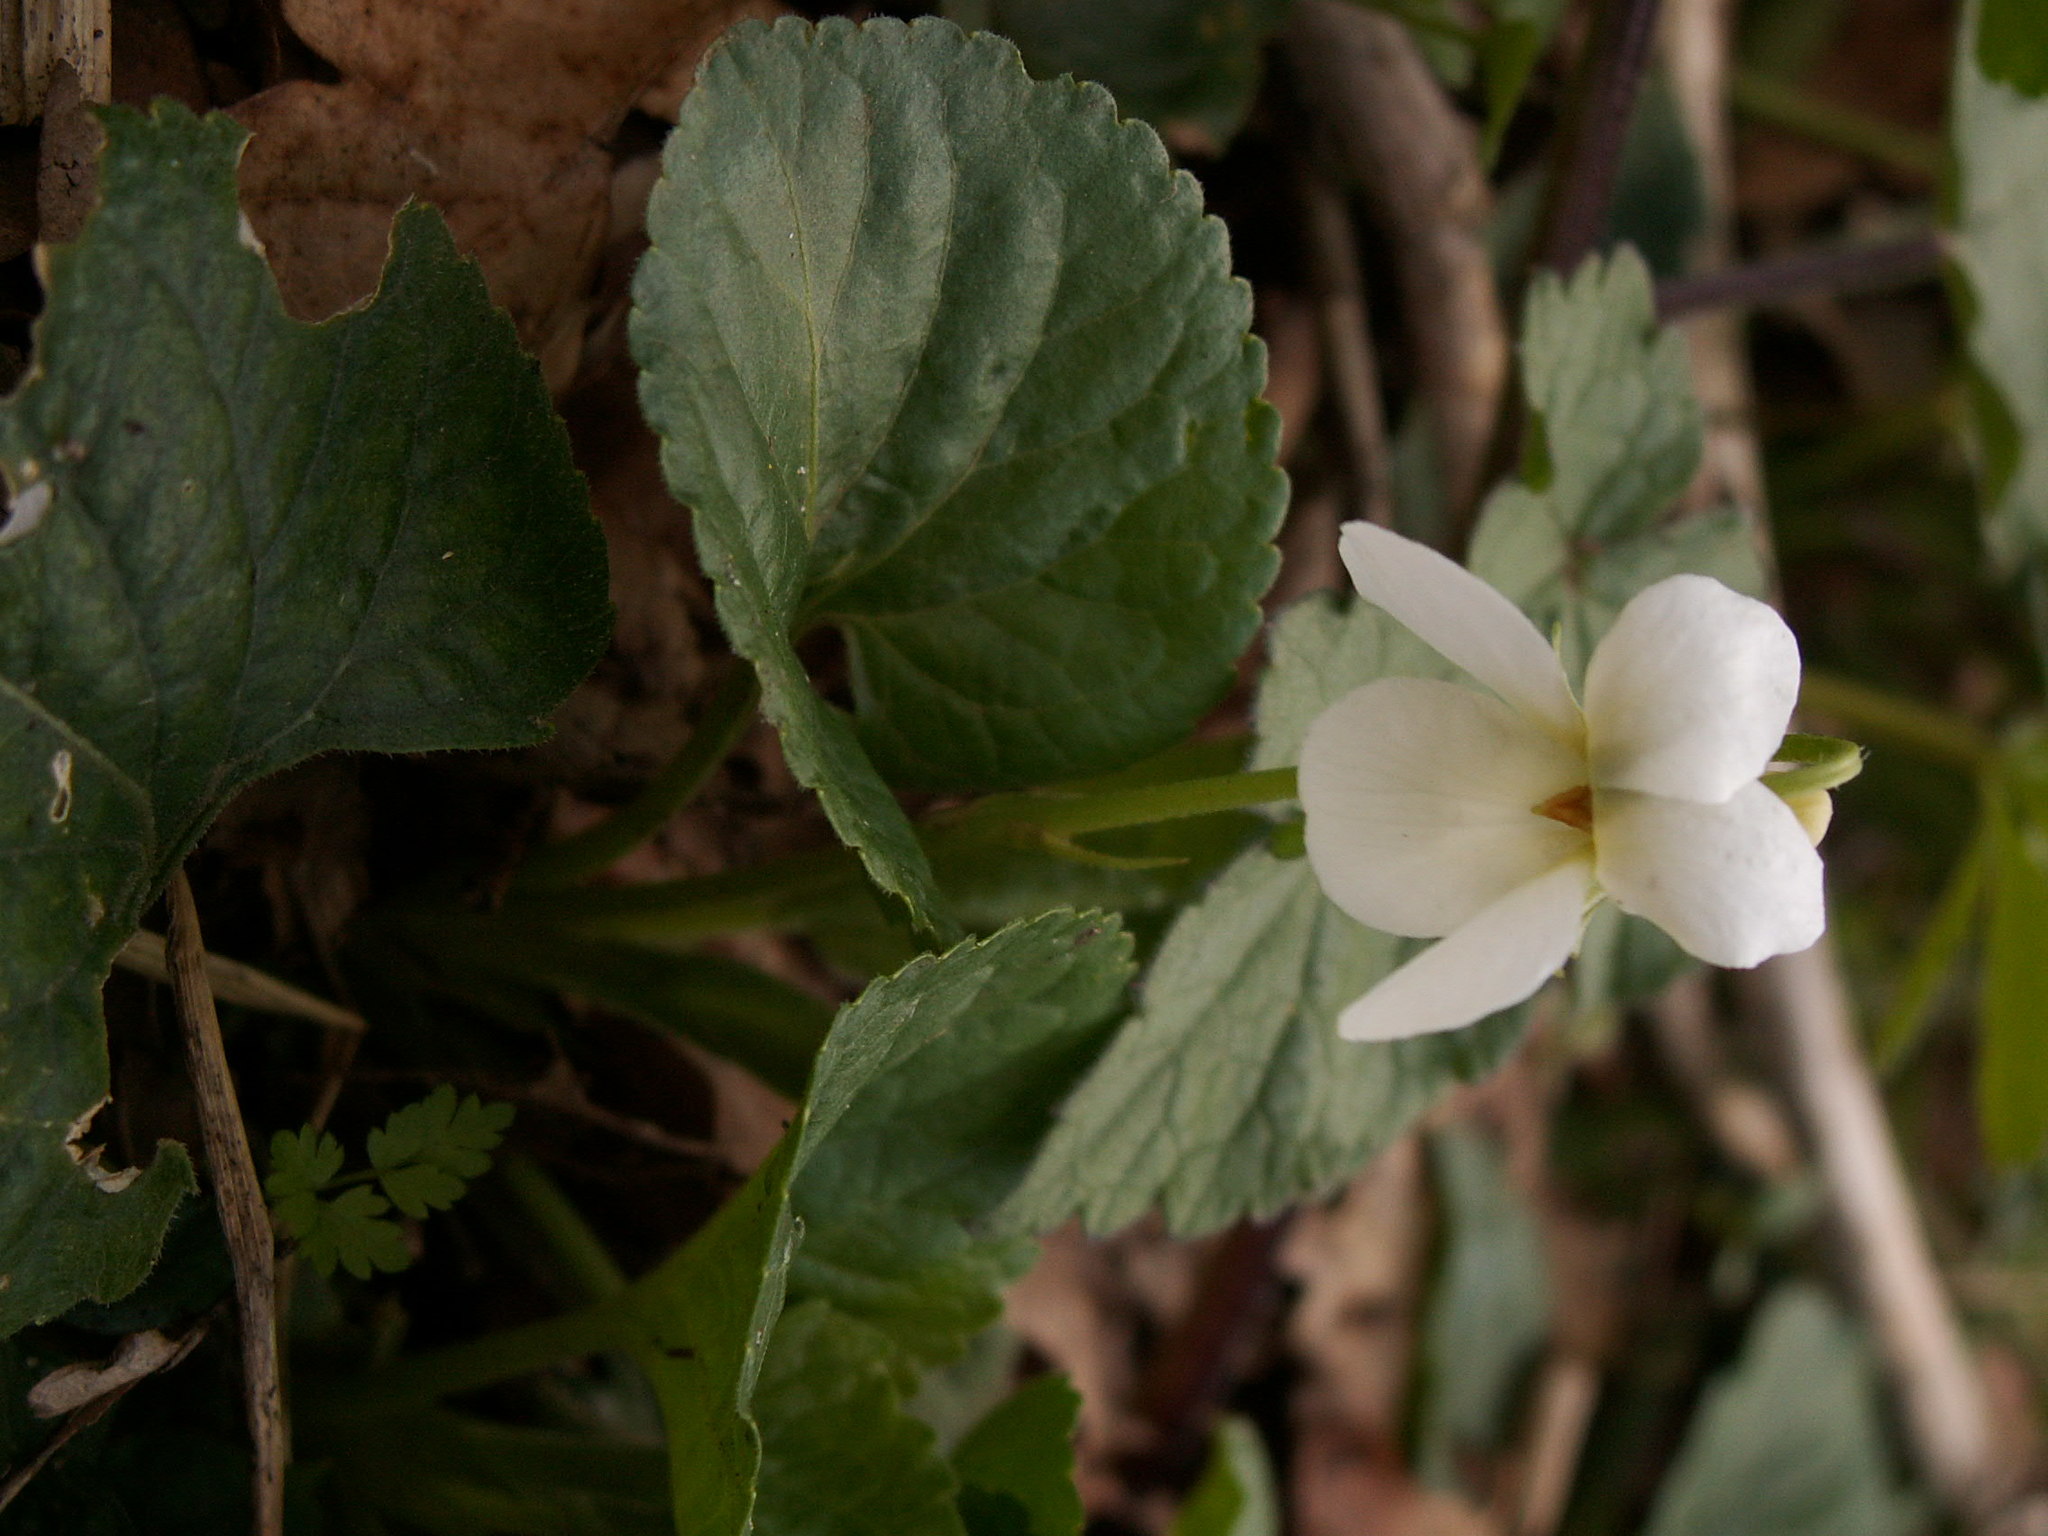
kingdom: Plantae
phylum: Tracheophyta
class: Magnoliopsida
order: Malpighiales
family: Violaceae
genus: Viola
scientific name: Viola odorata
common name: Sweet violet
